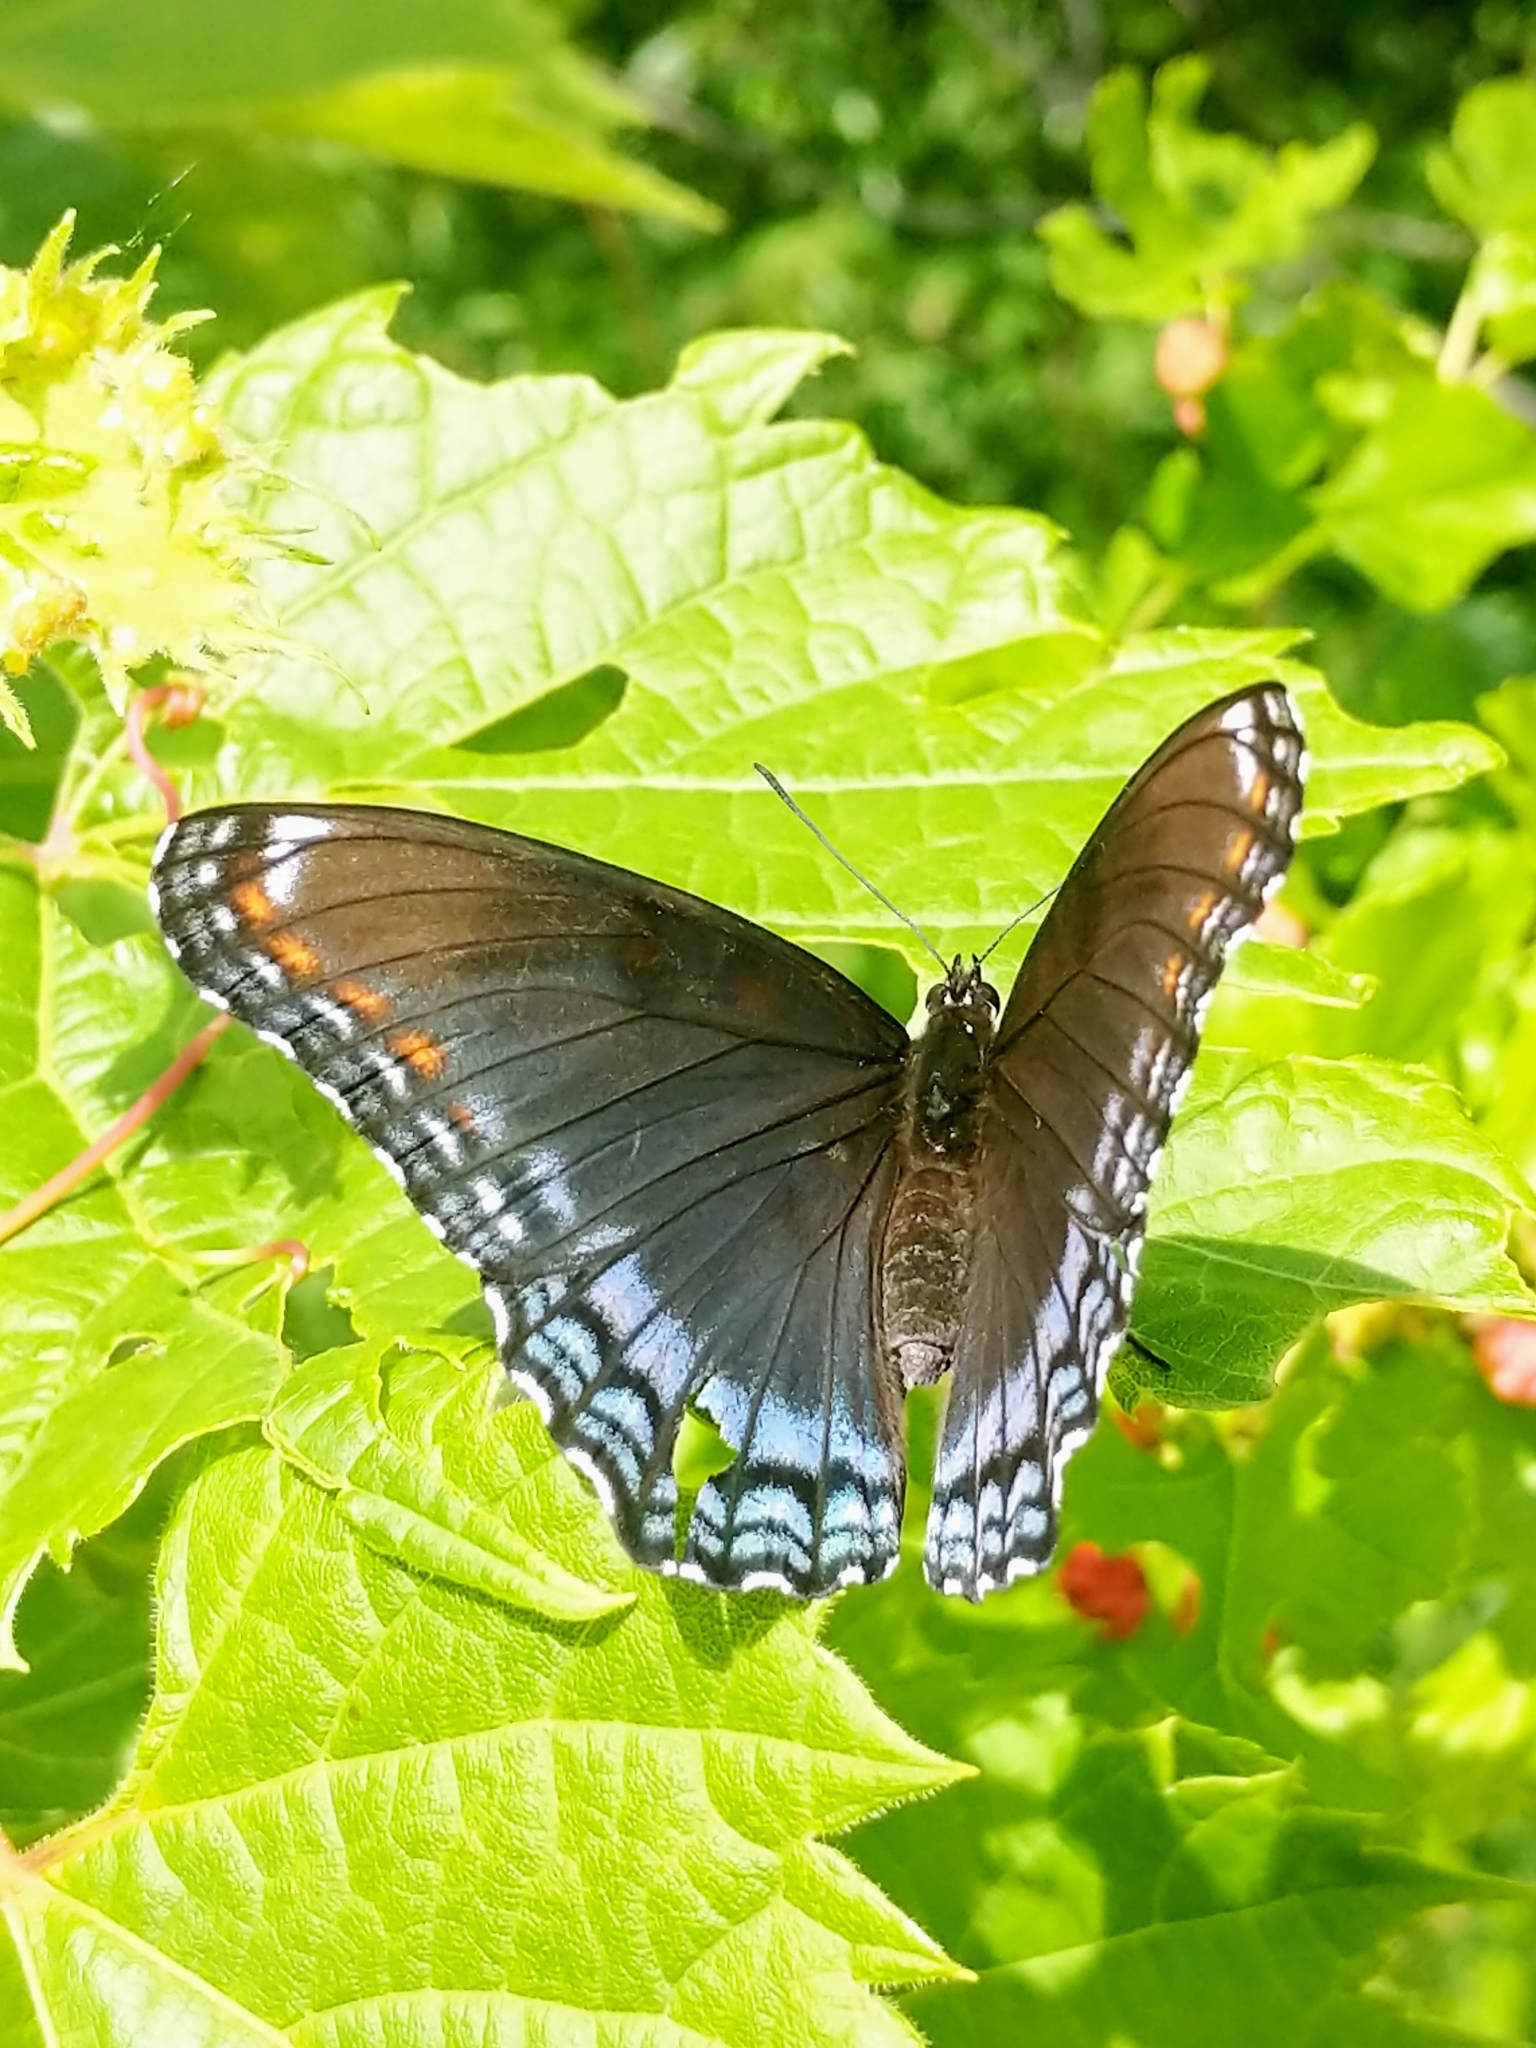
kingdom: Animalia
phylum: Arthropoda
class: Insecta
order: Lepidoptera
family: Nymphalidae
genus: Limenitis
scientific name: Limenitis astyanax
